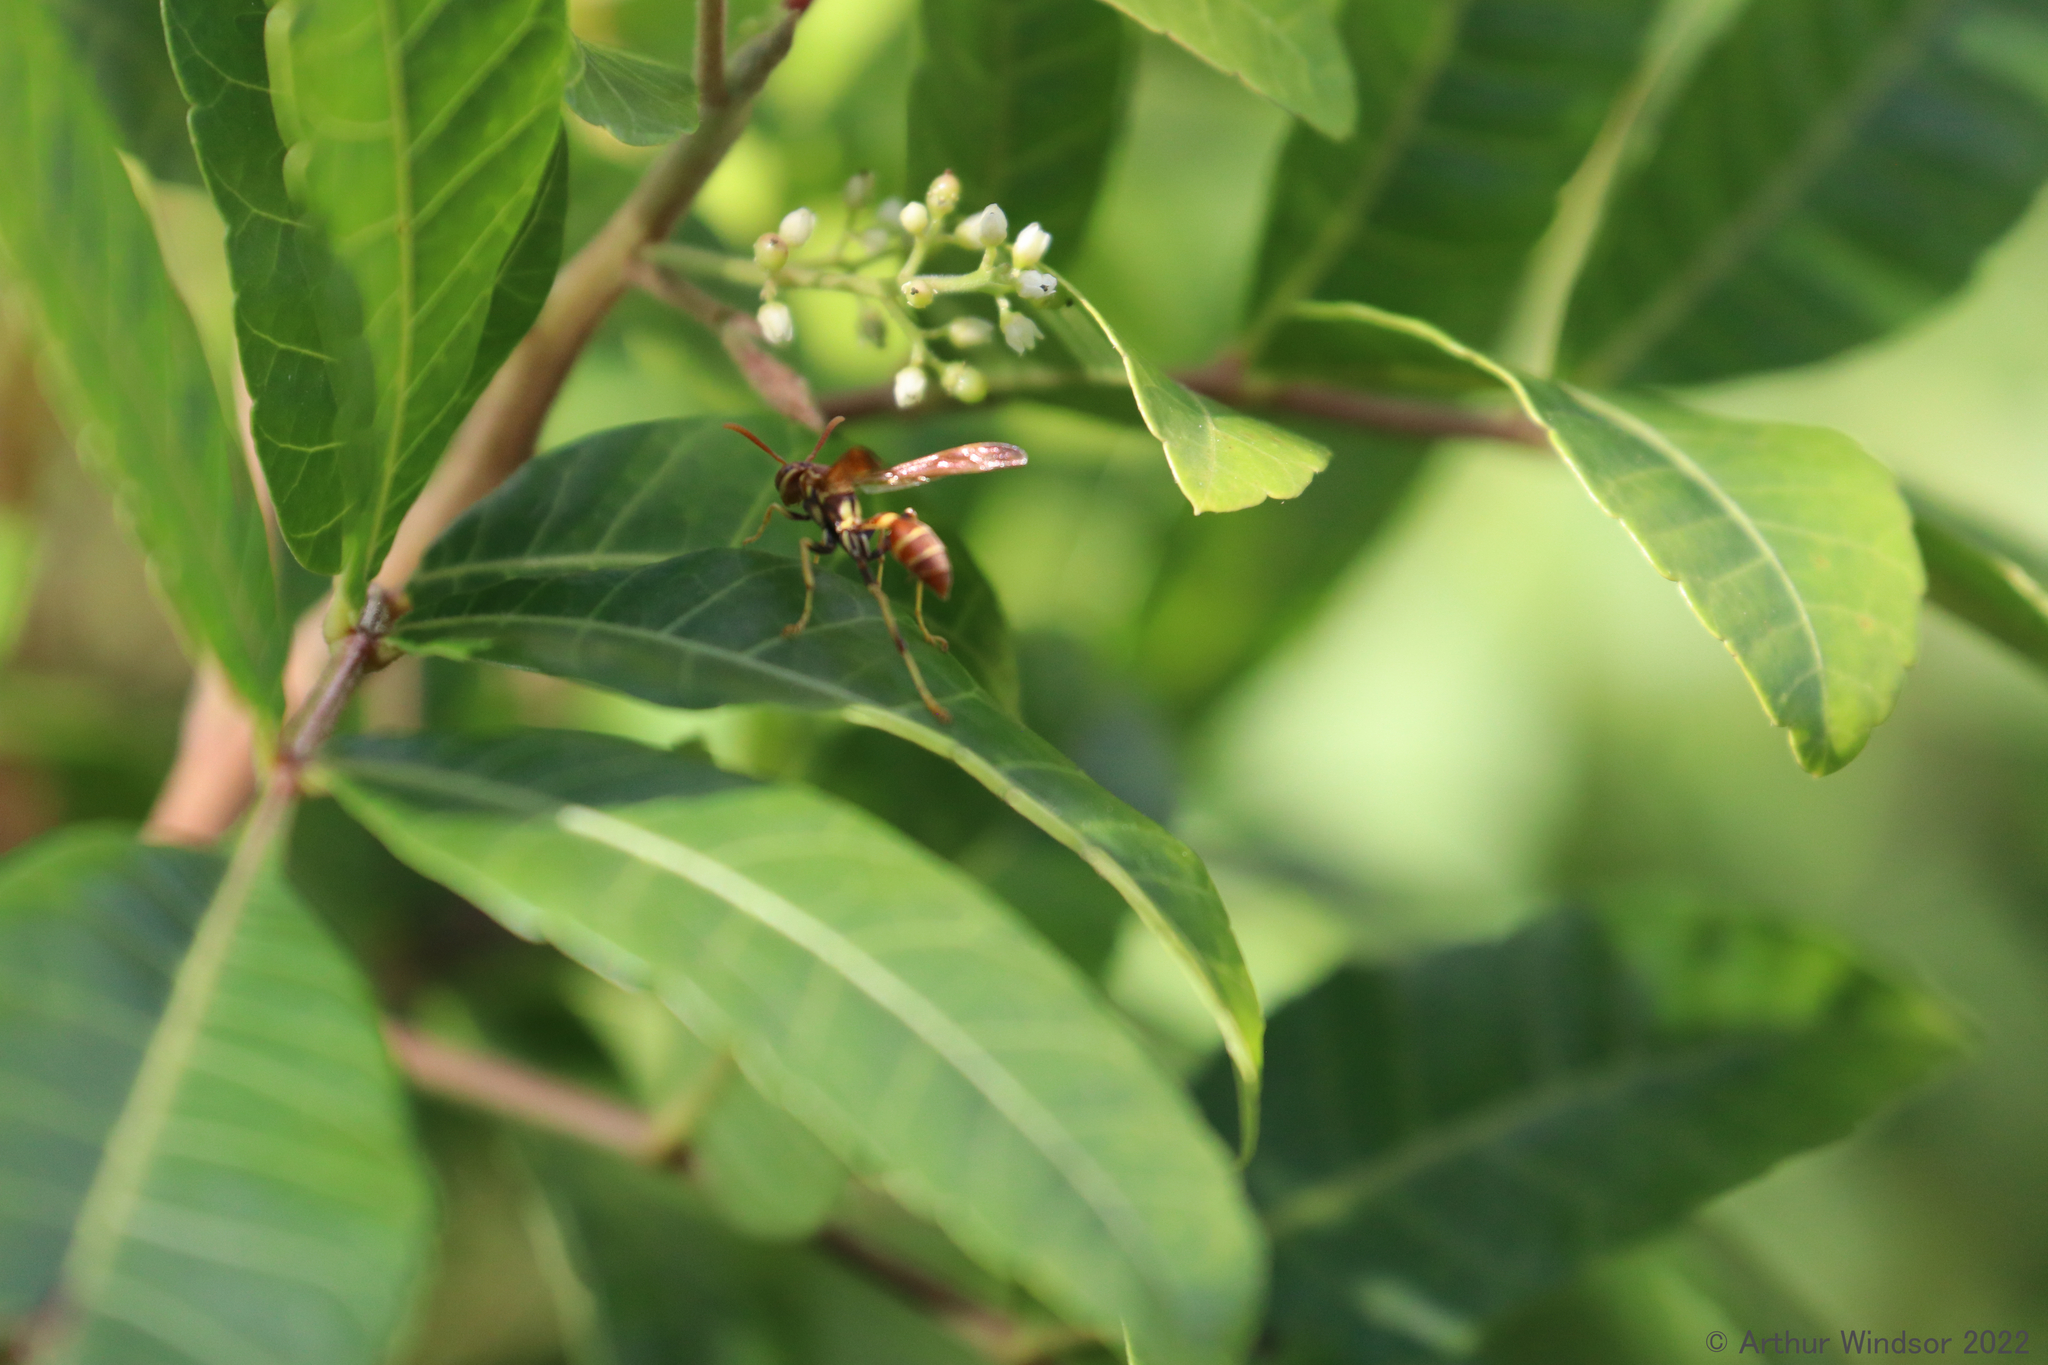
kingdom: Animalia
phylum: Arthropoda
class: Insecta
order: Hymenoptera
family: Vespidae
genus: Mischocyttarus
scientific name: Mischocyttarus mexicanus
